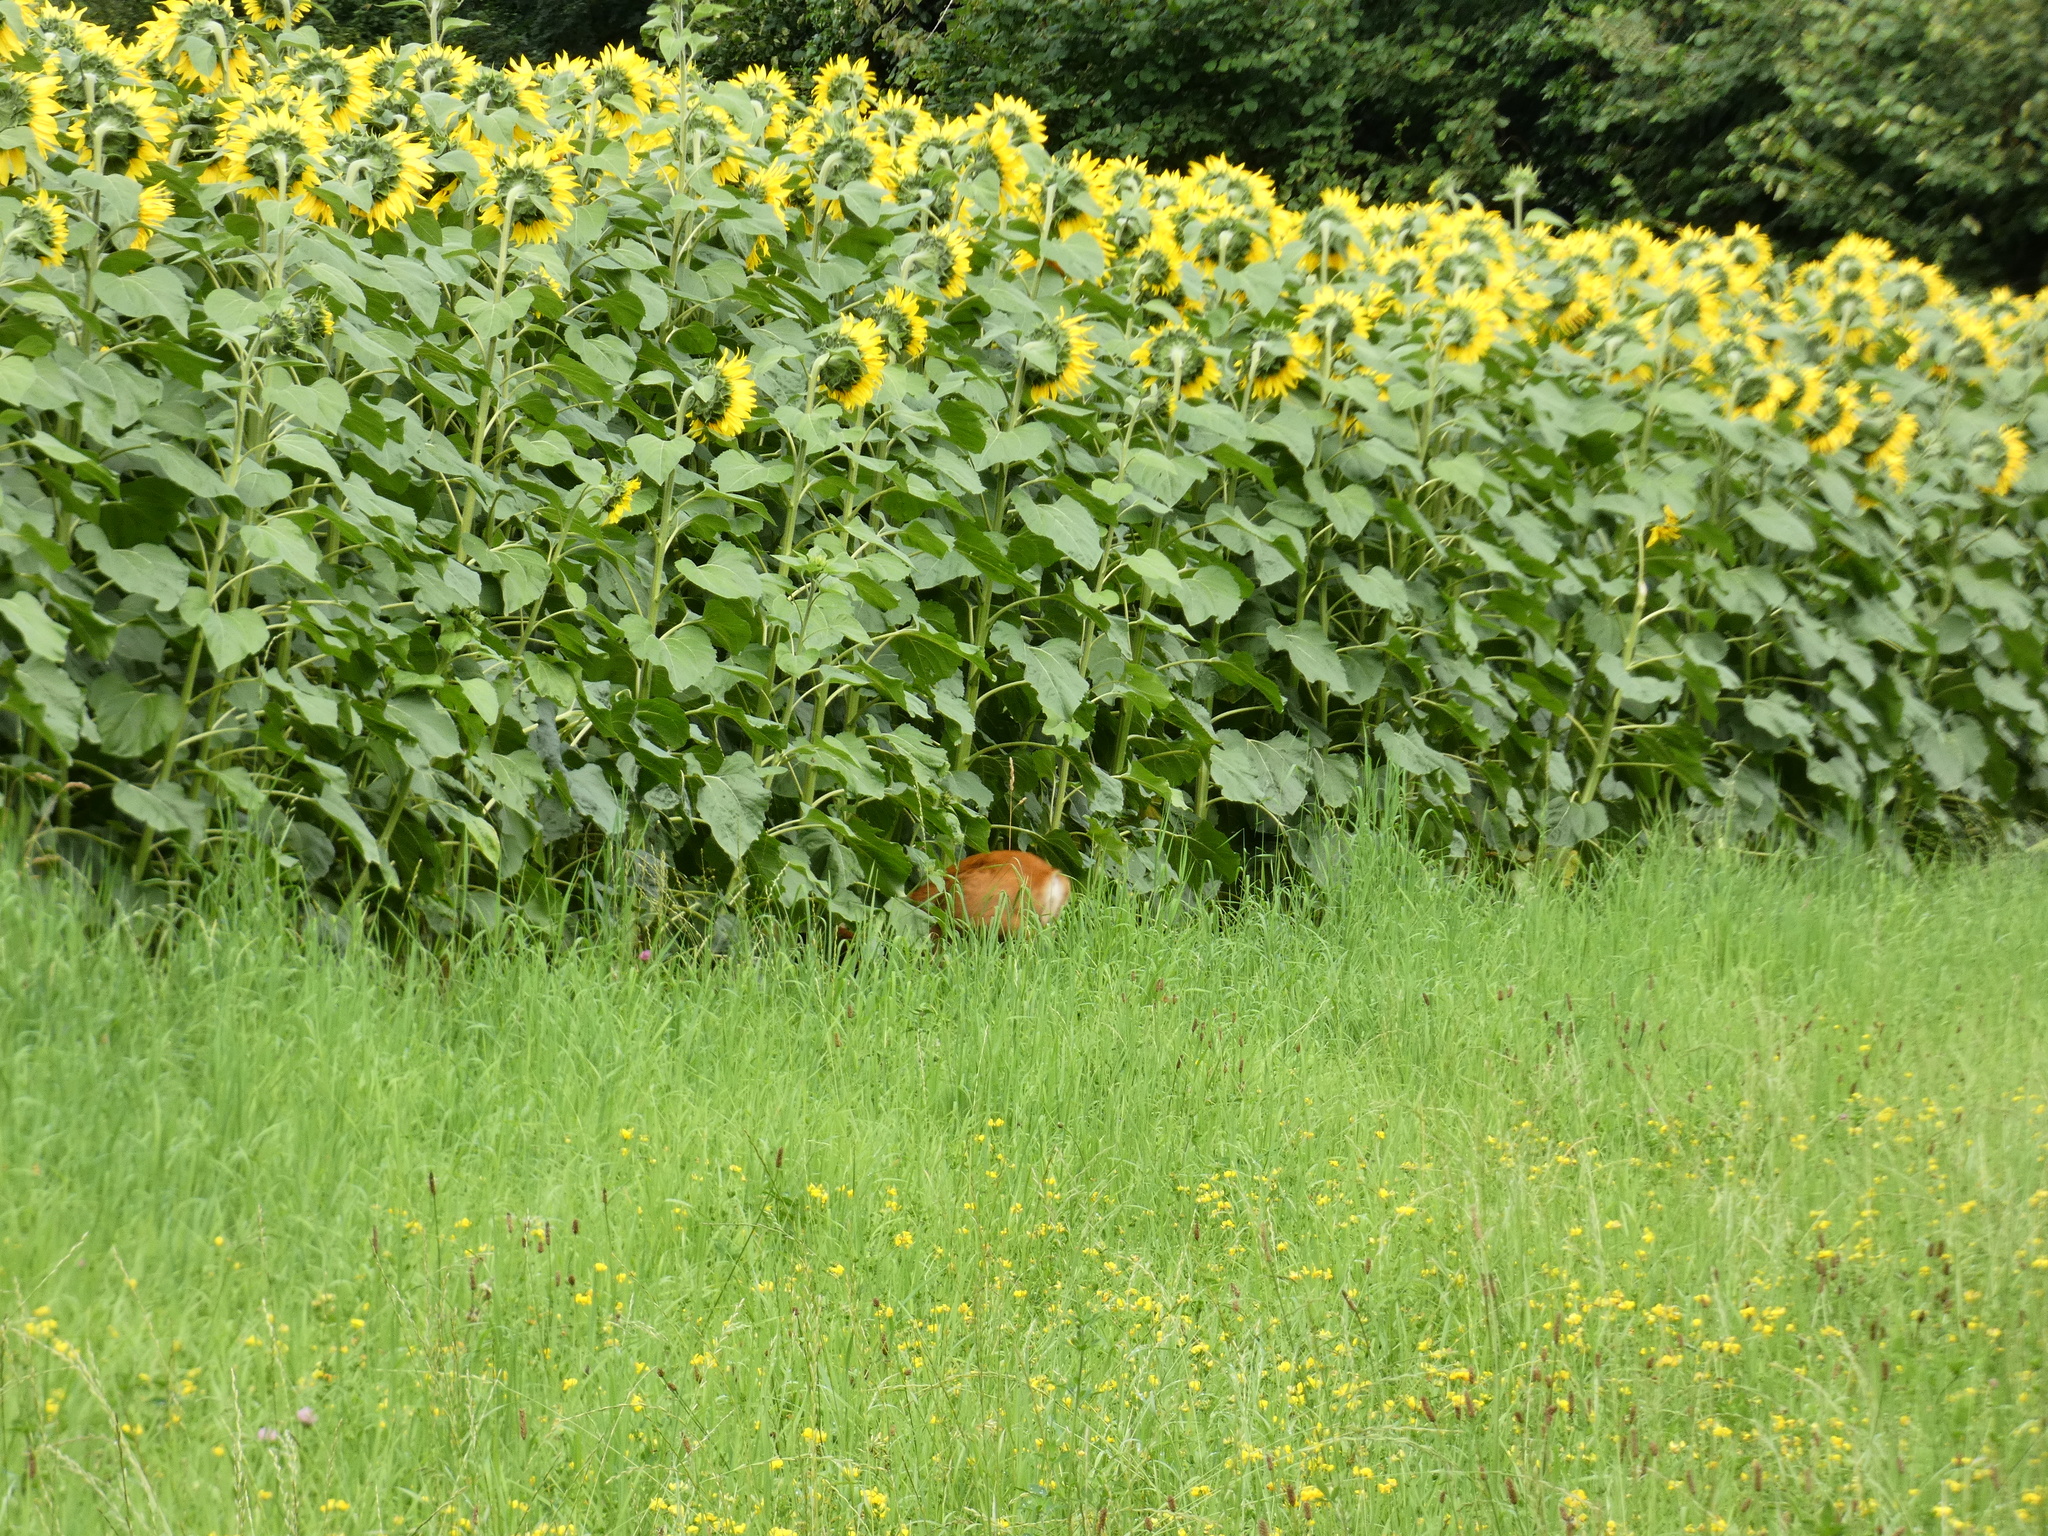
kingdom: Animalia
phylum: Chordata
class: Mammalia
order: Artiodactyla
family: Cervidae
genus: Capreolus
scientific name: Capreolus capreolus
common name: Western roe deer
